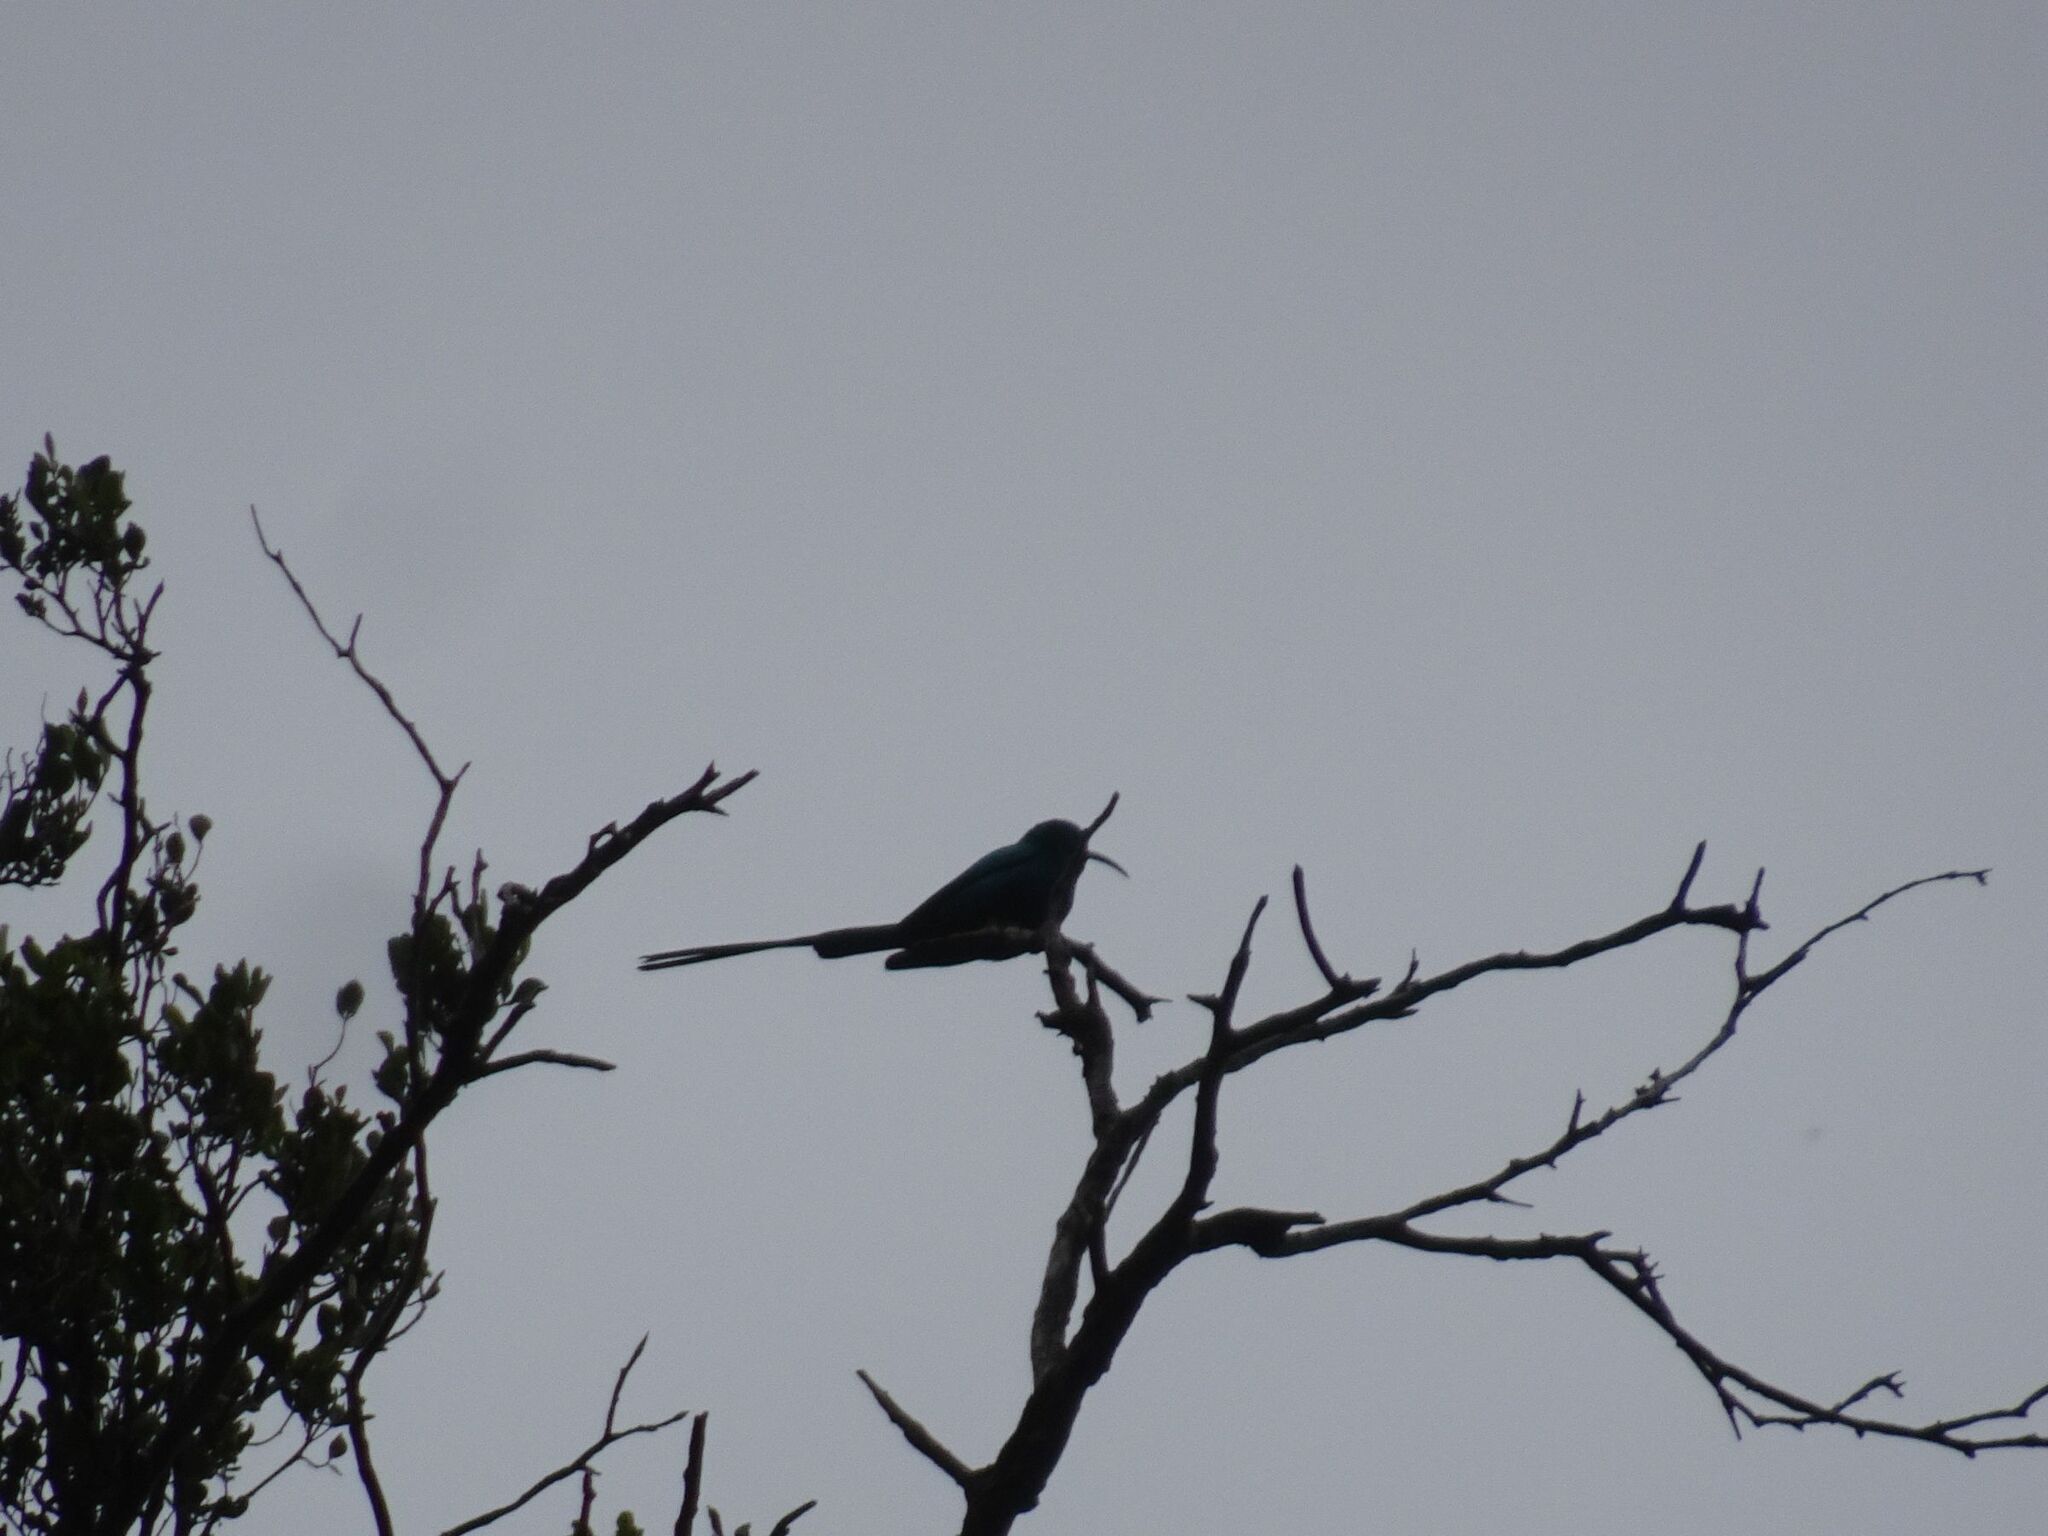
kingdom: Animalia
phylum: Chordata
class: Aves
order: Passeriformes
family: Nectariniidae
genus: Nectarinia
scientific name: Nectarinia famosa
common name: Malachite sunbird
